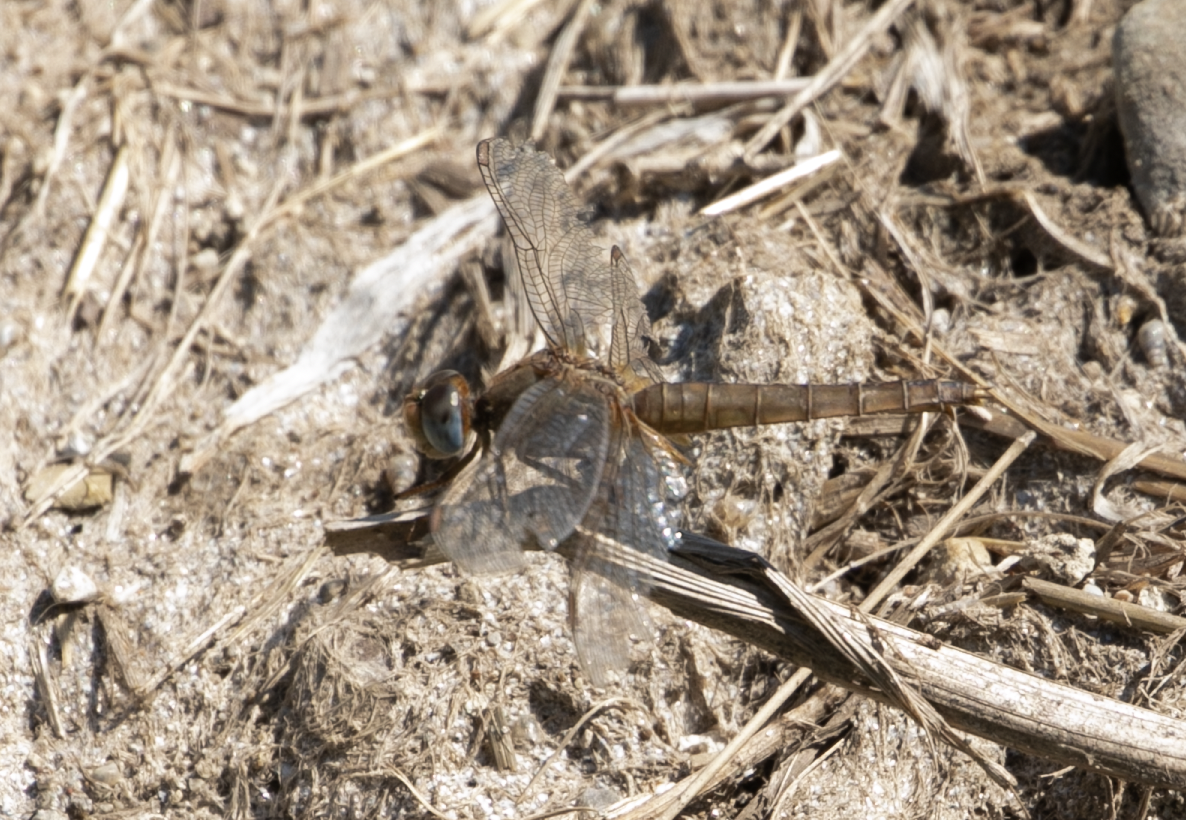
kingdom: Animalia
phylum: Arthropoda
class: Insecta
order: Odonata
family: Libellulidae
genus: Crocothemis
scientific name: Crocothemis erythraea
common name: Scarlet dragonfly
